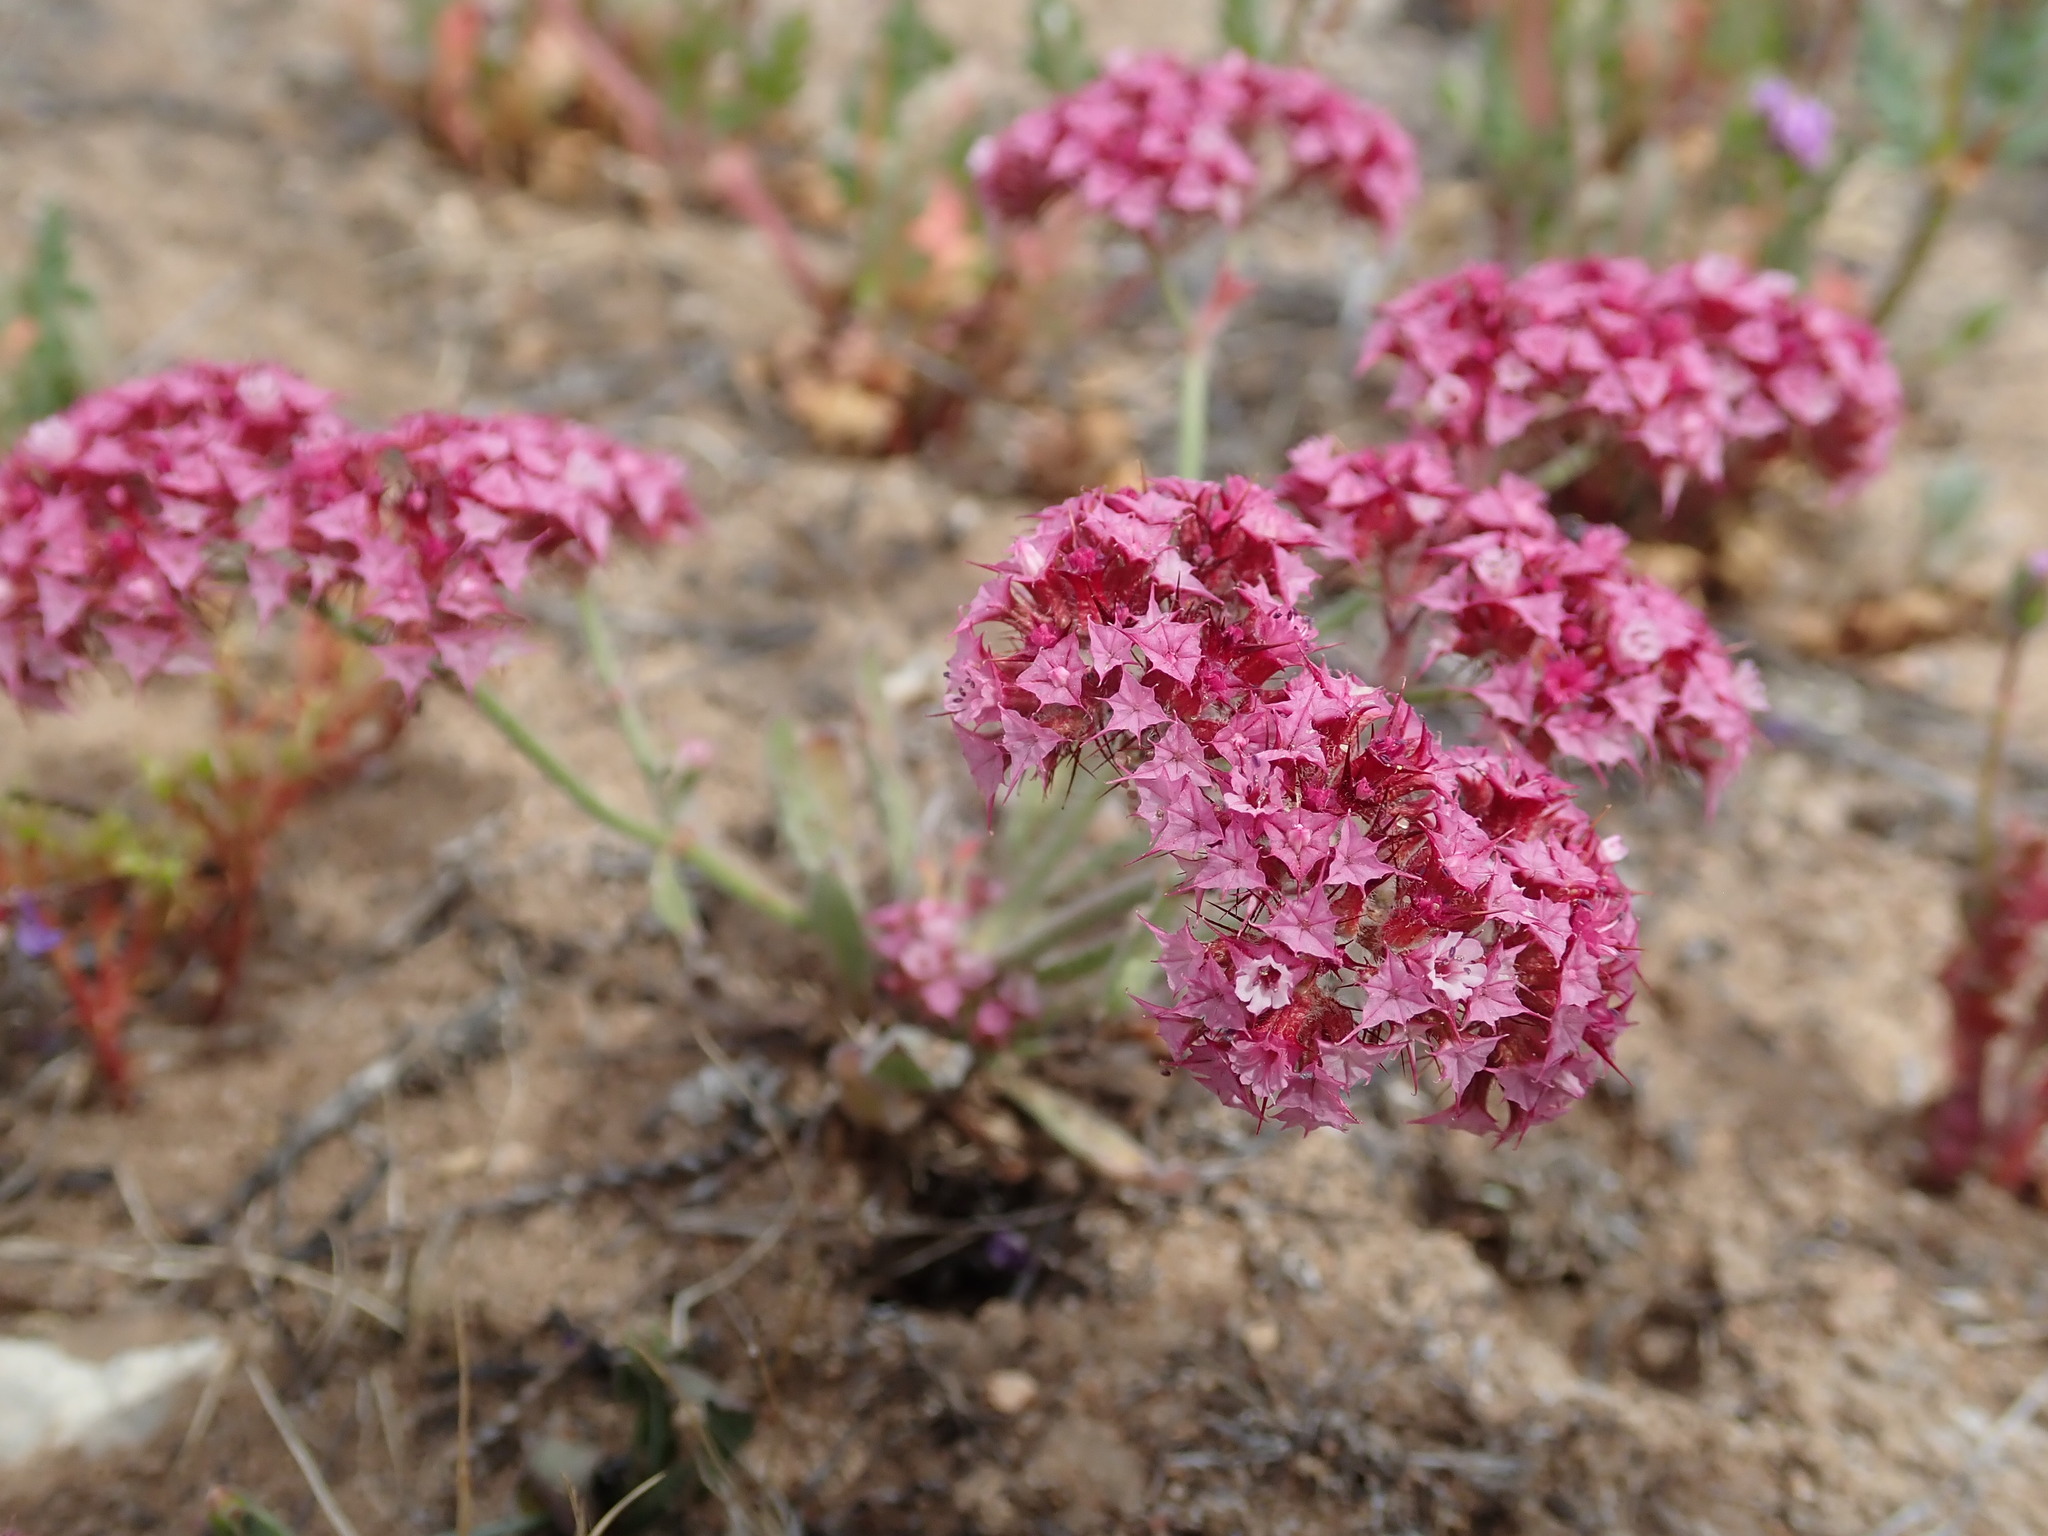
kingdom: Plantae
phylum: Tracheophyta
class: Magnoliopsida
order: Caryophyllales
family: Polygonaceae
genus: Chorizanthe
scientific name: Chorizanthe douglasii
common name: Douglas's spineflower
